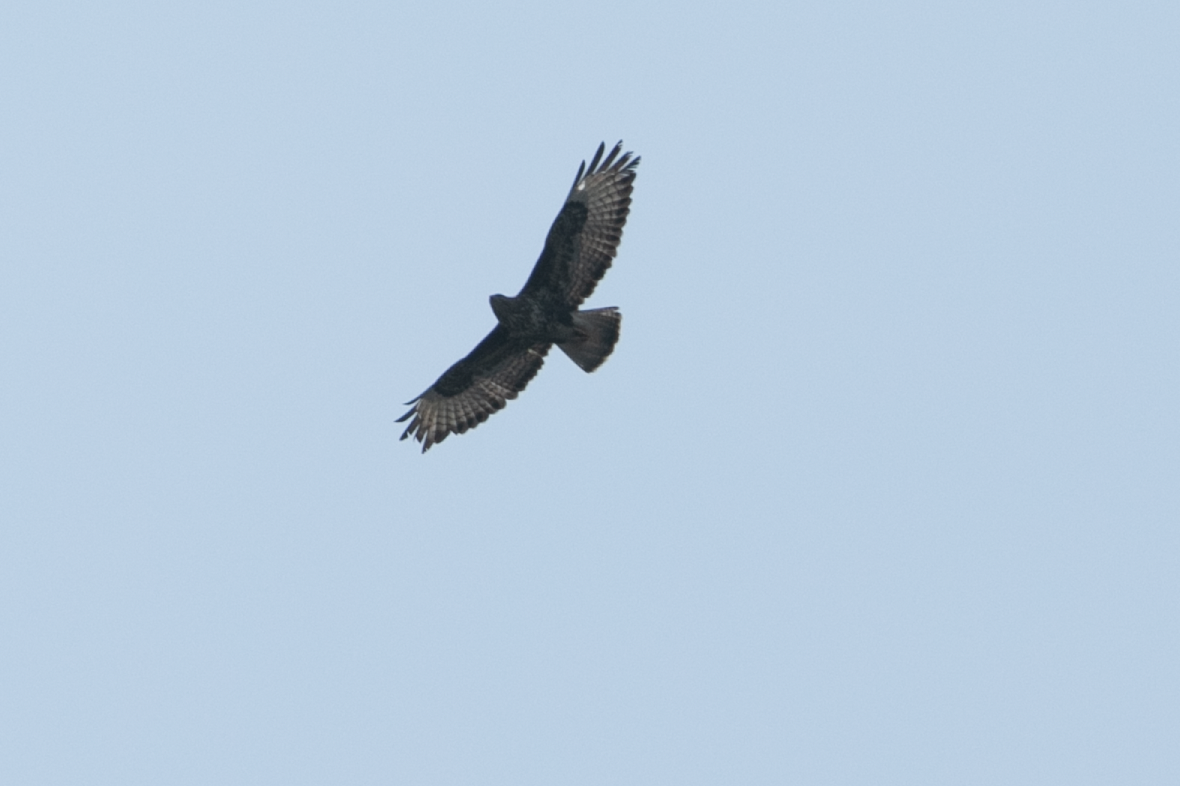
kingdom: Animalia
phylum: Chordata
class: Aves
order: Accipitriformes
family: Accipitridae
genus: Buteo
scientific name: Buteo buteo
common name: Common buzzard
